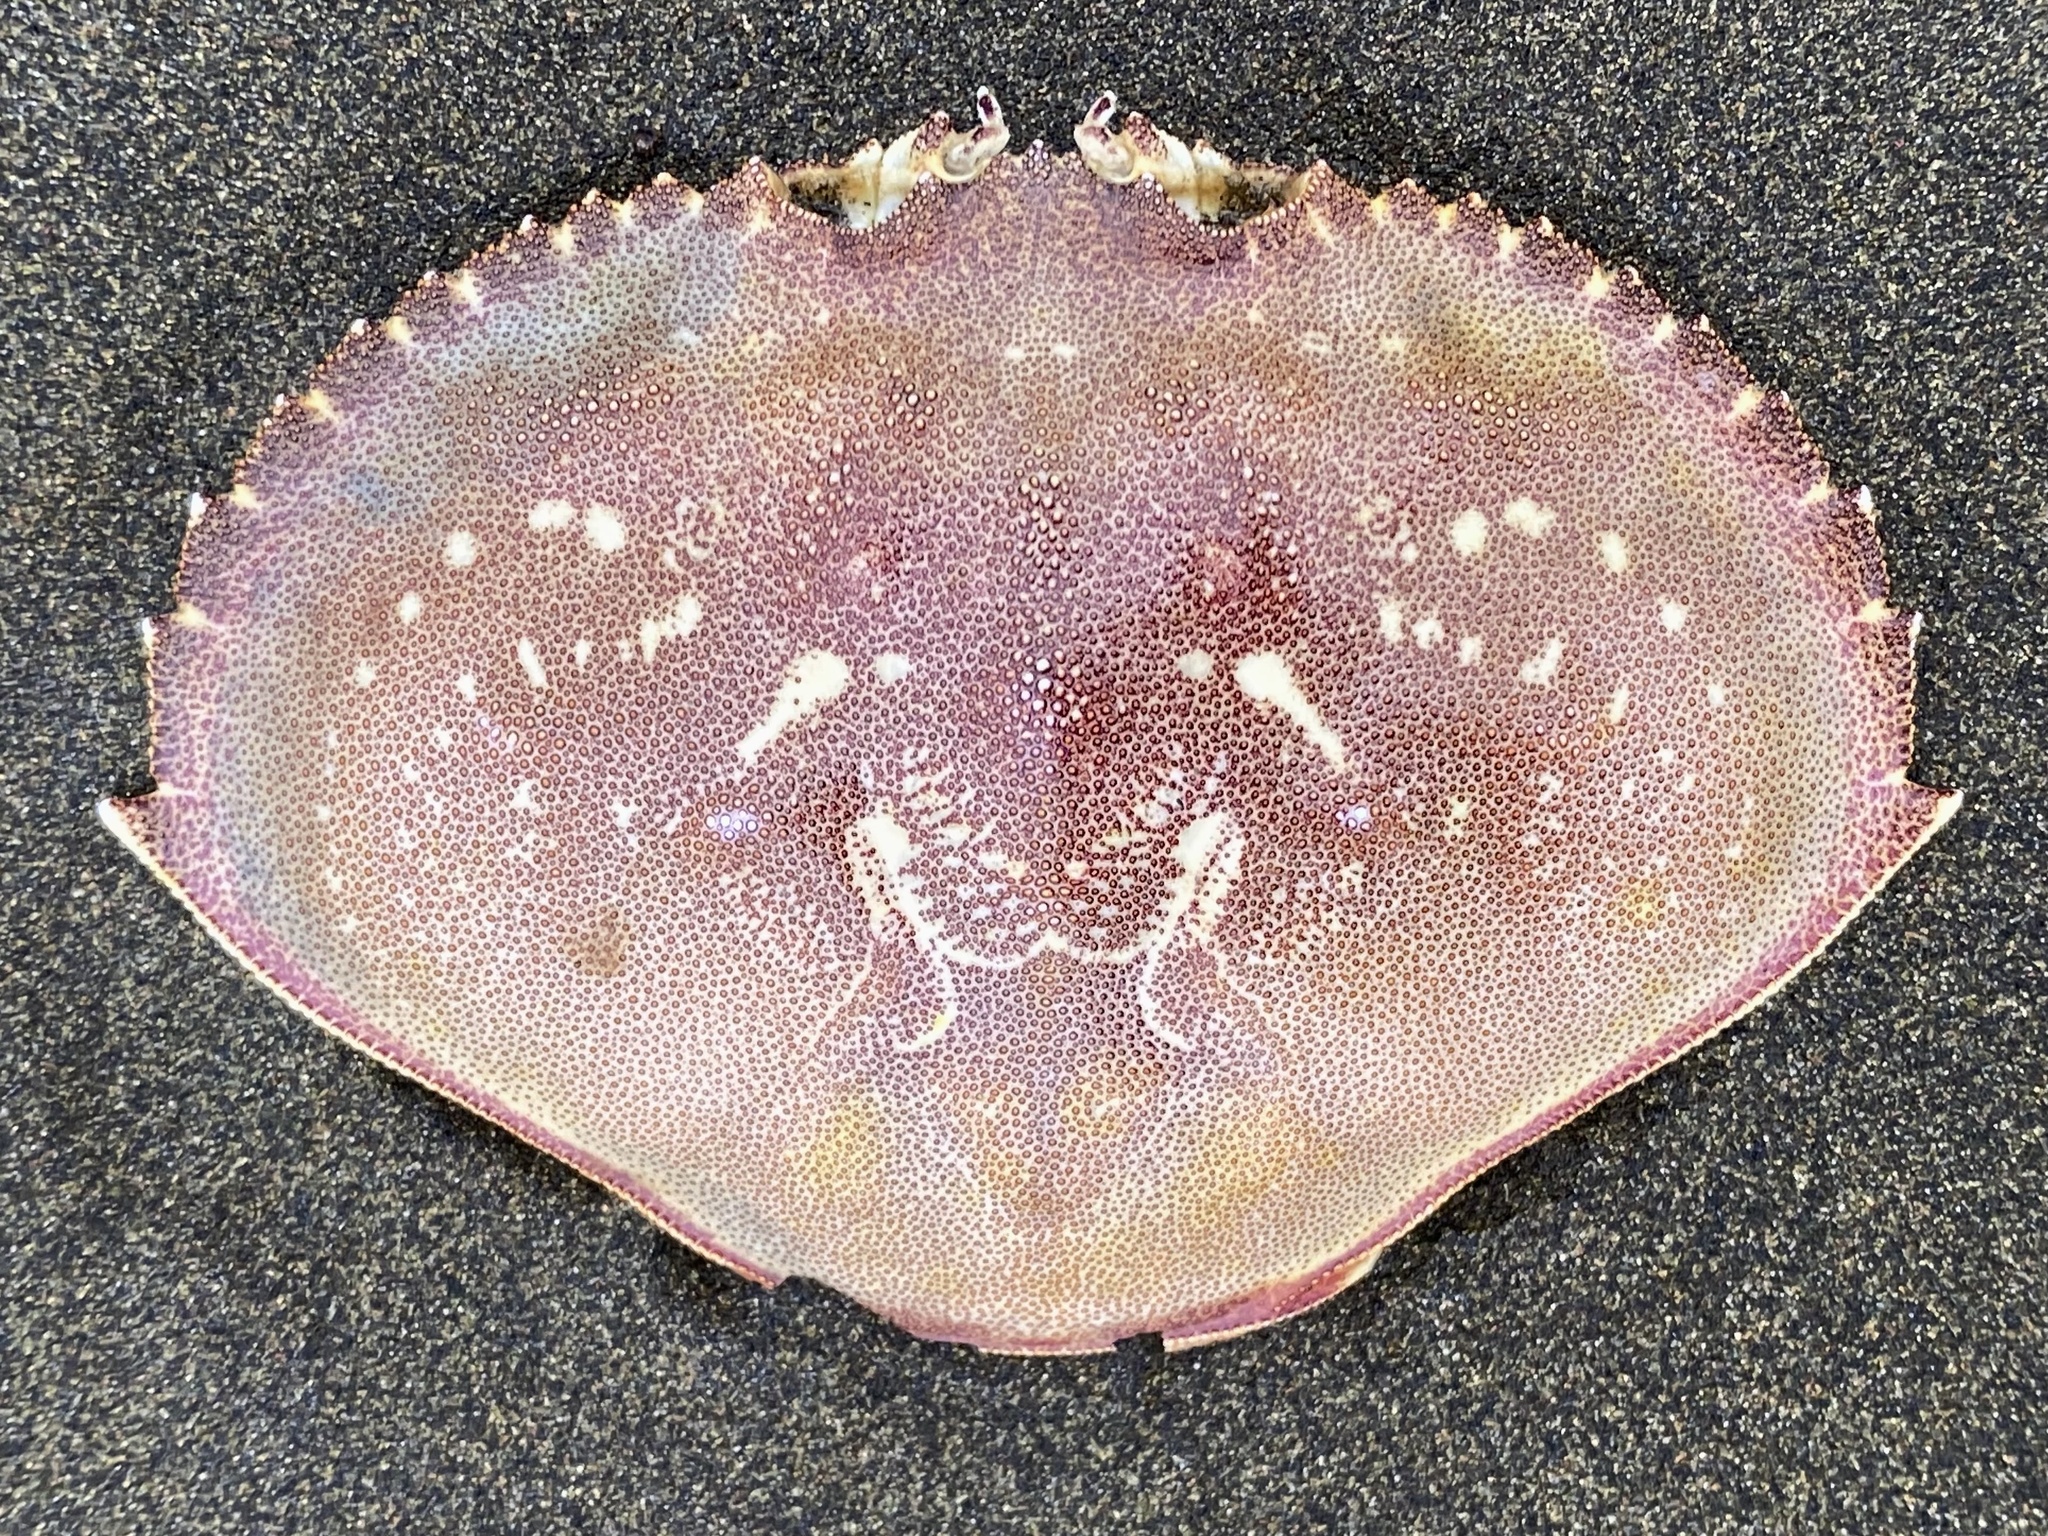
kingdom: Animalia
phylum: Arthropoda
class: Malacostraca
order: Decapoda
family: Cancridae
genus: Metacarcinus
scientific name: Metacarcinus magister
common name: Californian crab
